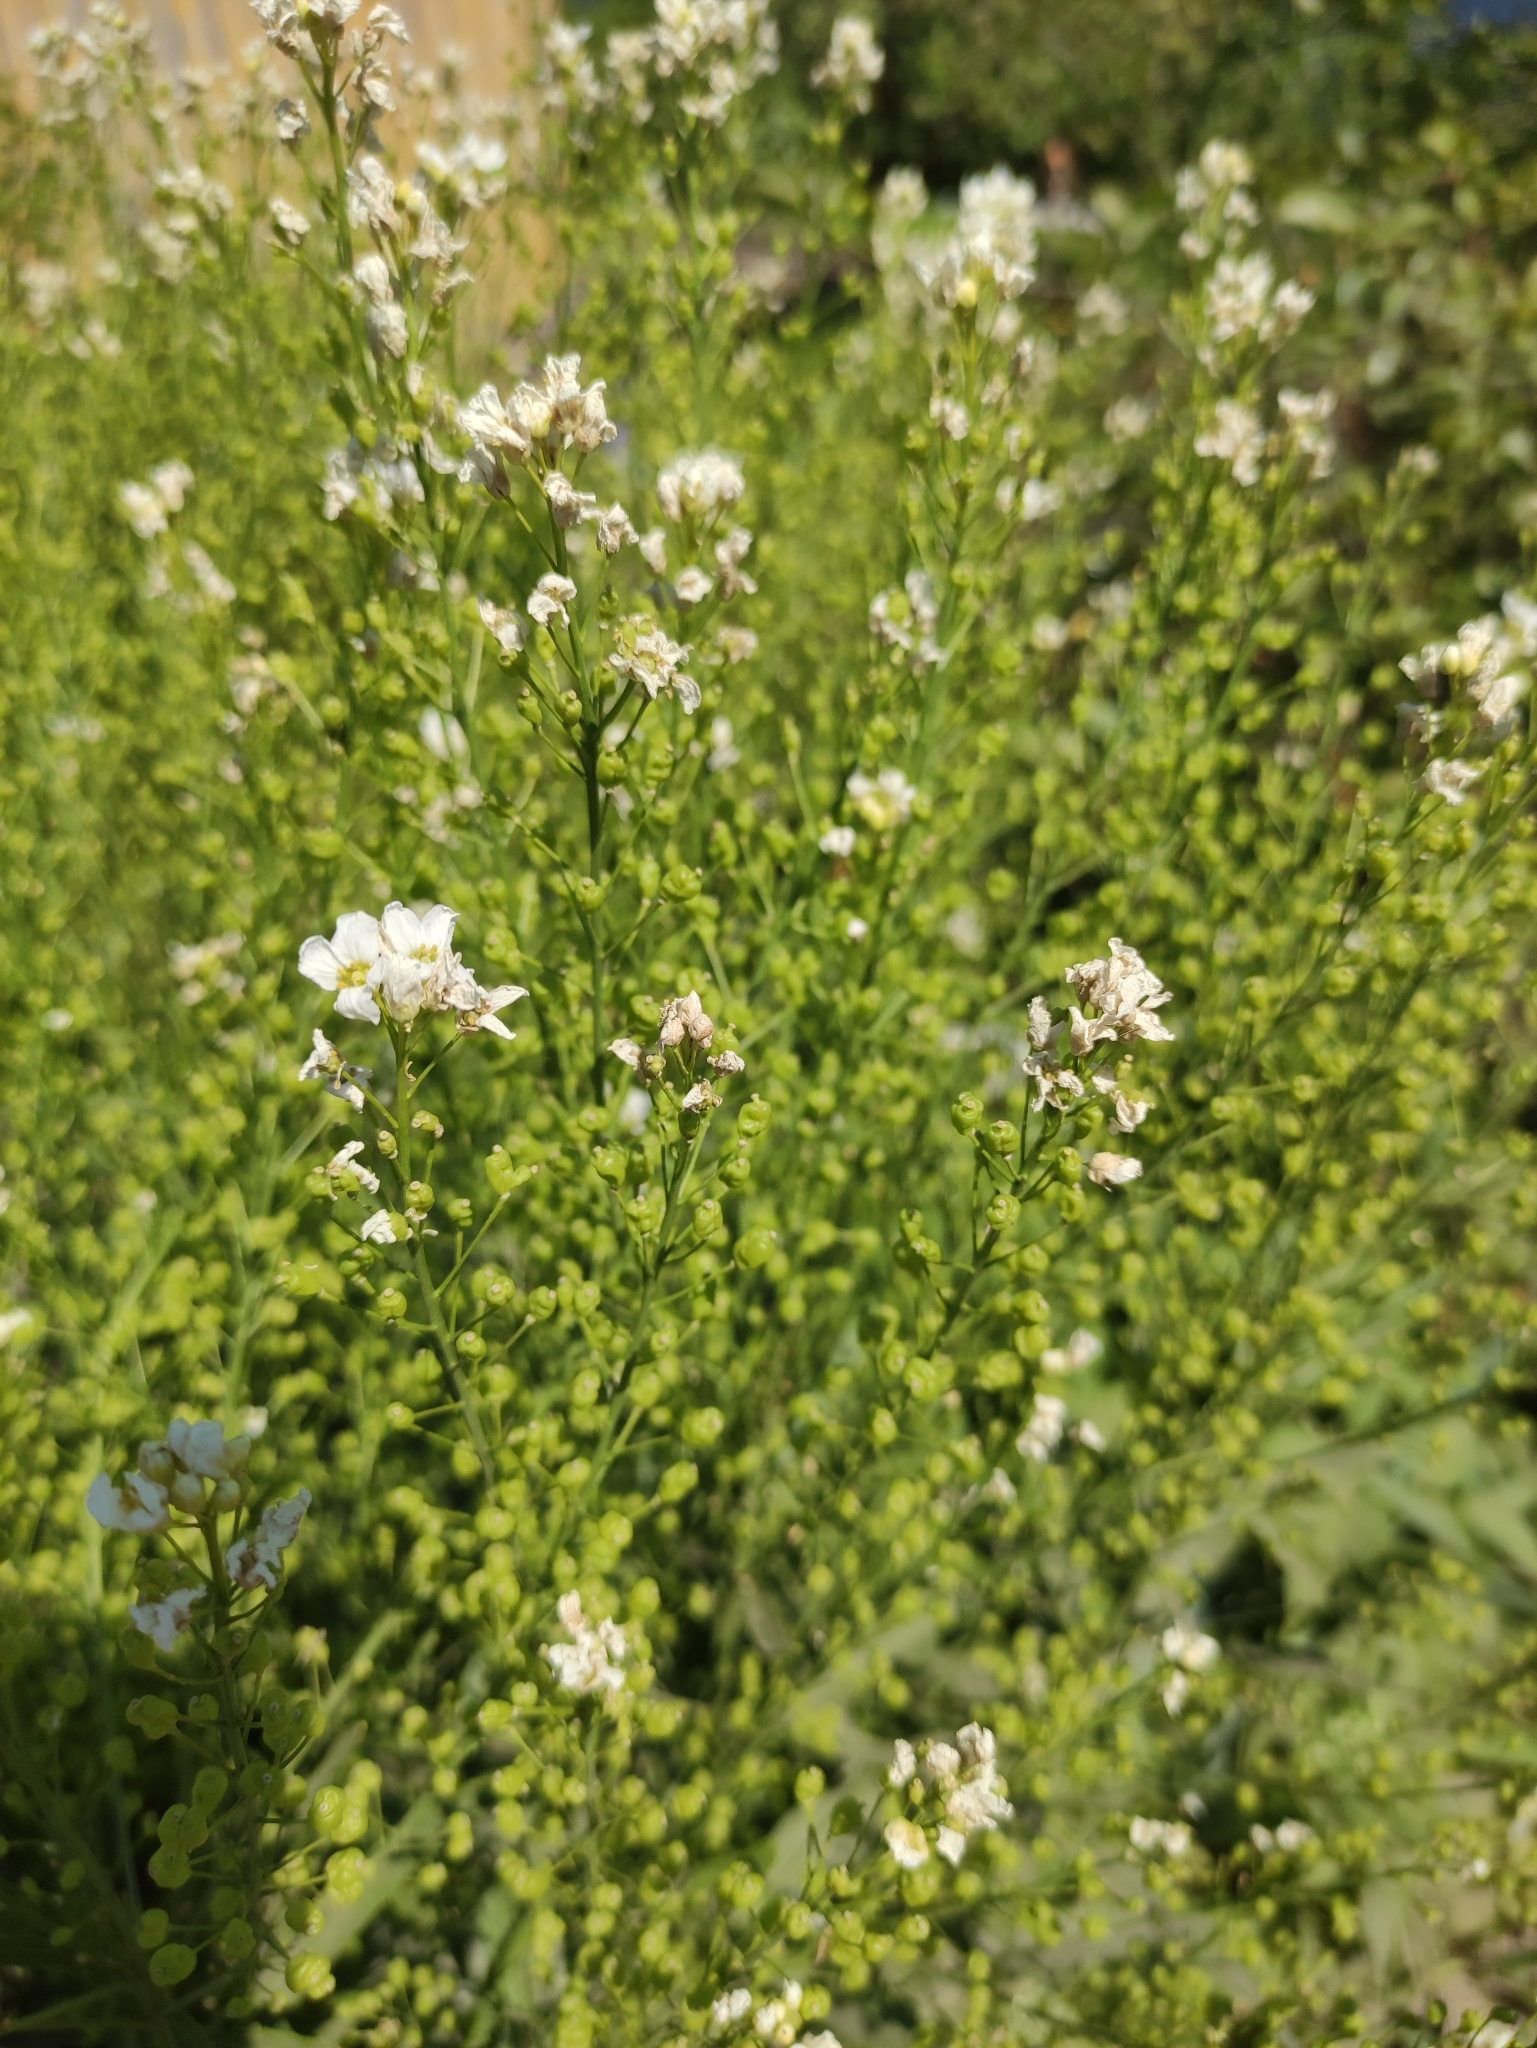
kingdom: Plantae
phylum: Tracheophyta
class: Magnoliopsida
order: Brassicales
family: Brassicaceae
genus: Armoracia
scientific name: Armoracia rusticana
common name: Horseradish
